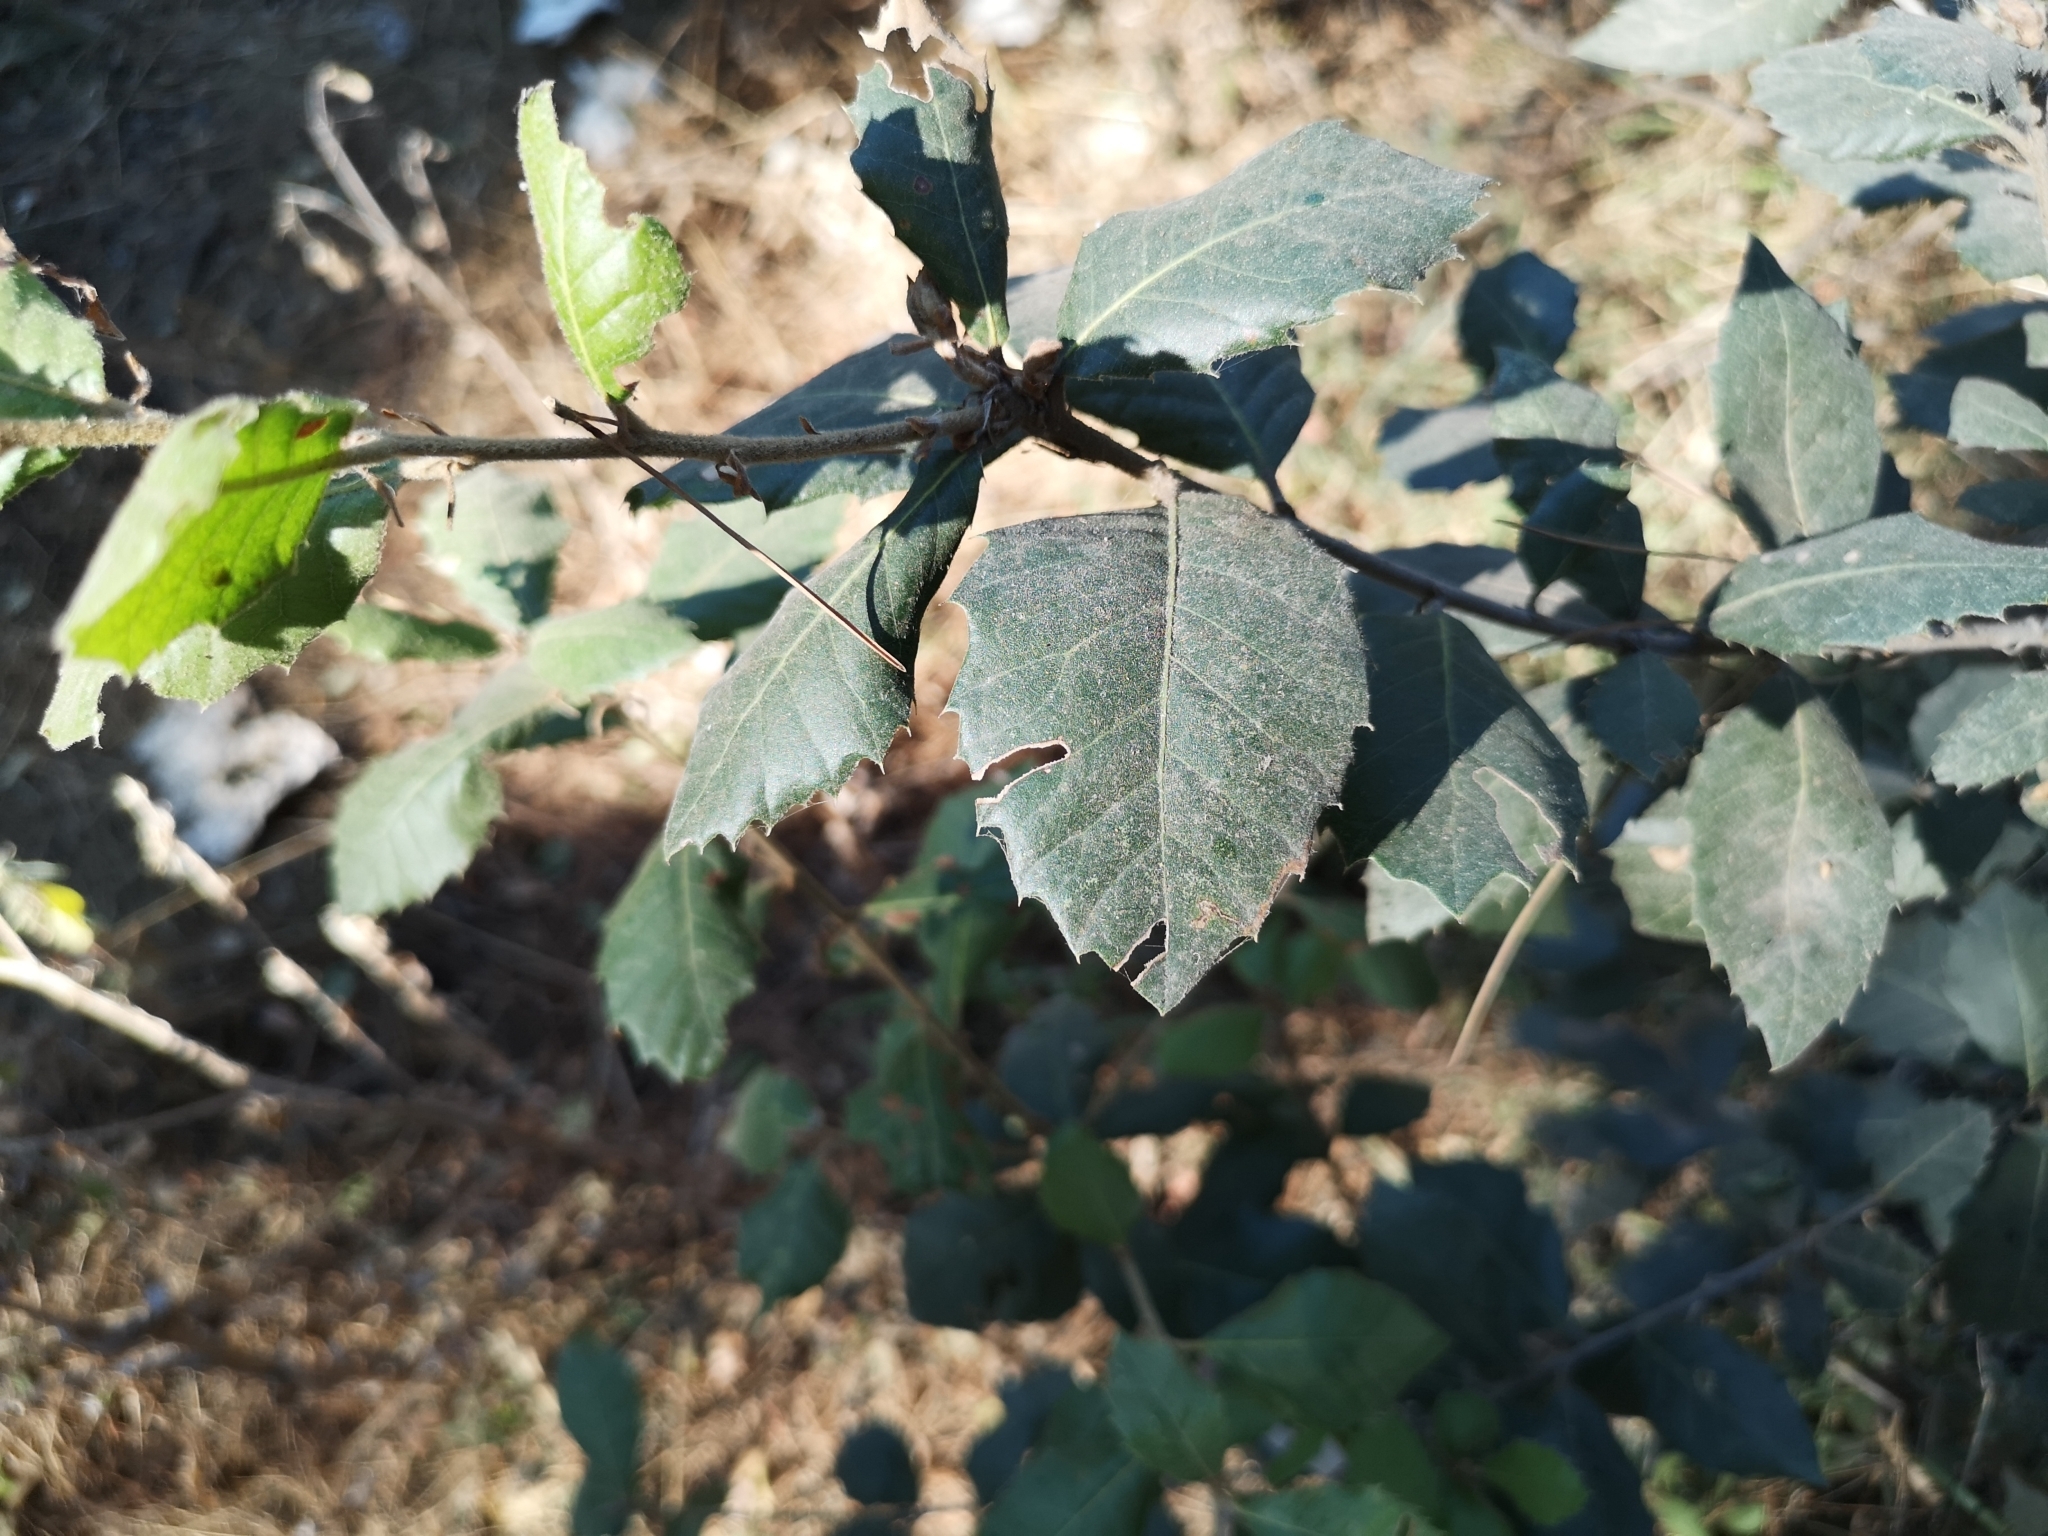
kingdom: Plantae
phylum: Tracheophyta
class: Magnoliopsida
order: Fagales
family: Fagaceae
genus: Quercus
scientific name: Quercus ilex
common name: Evergreen oak
